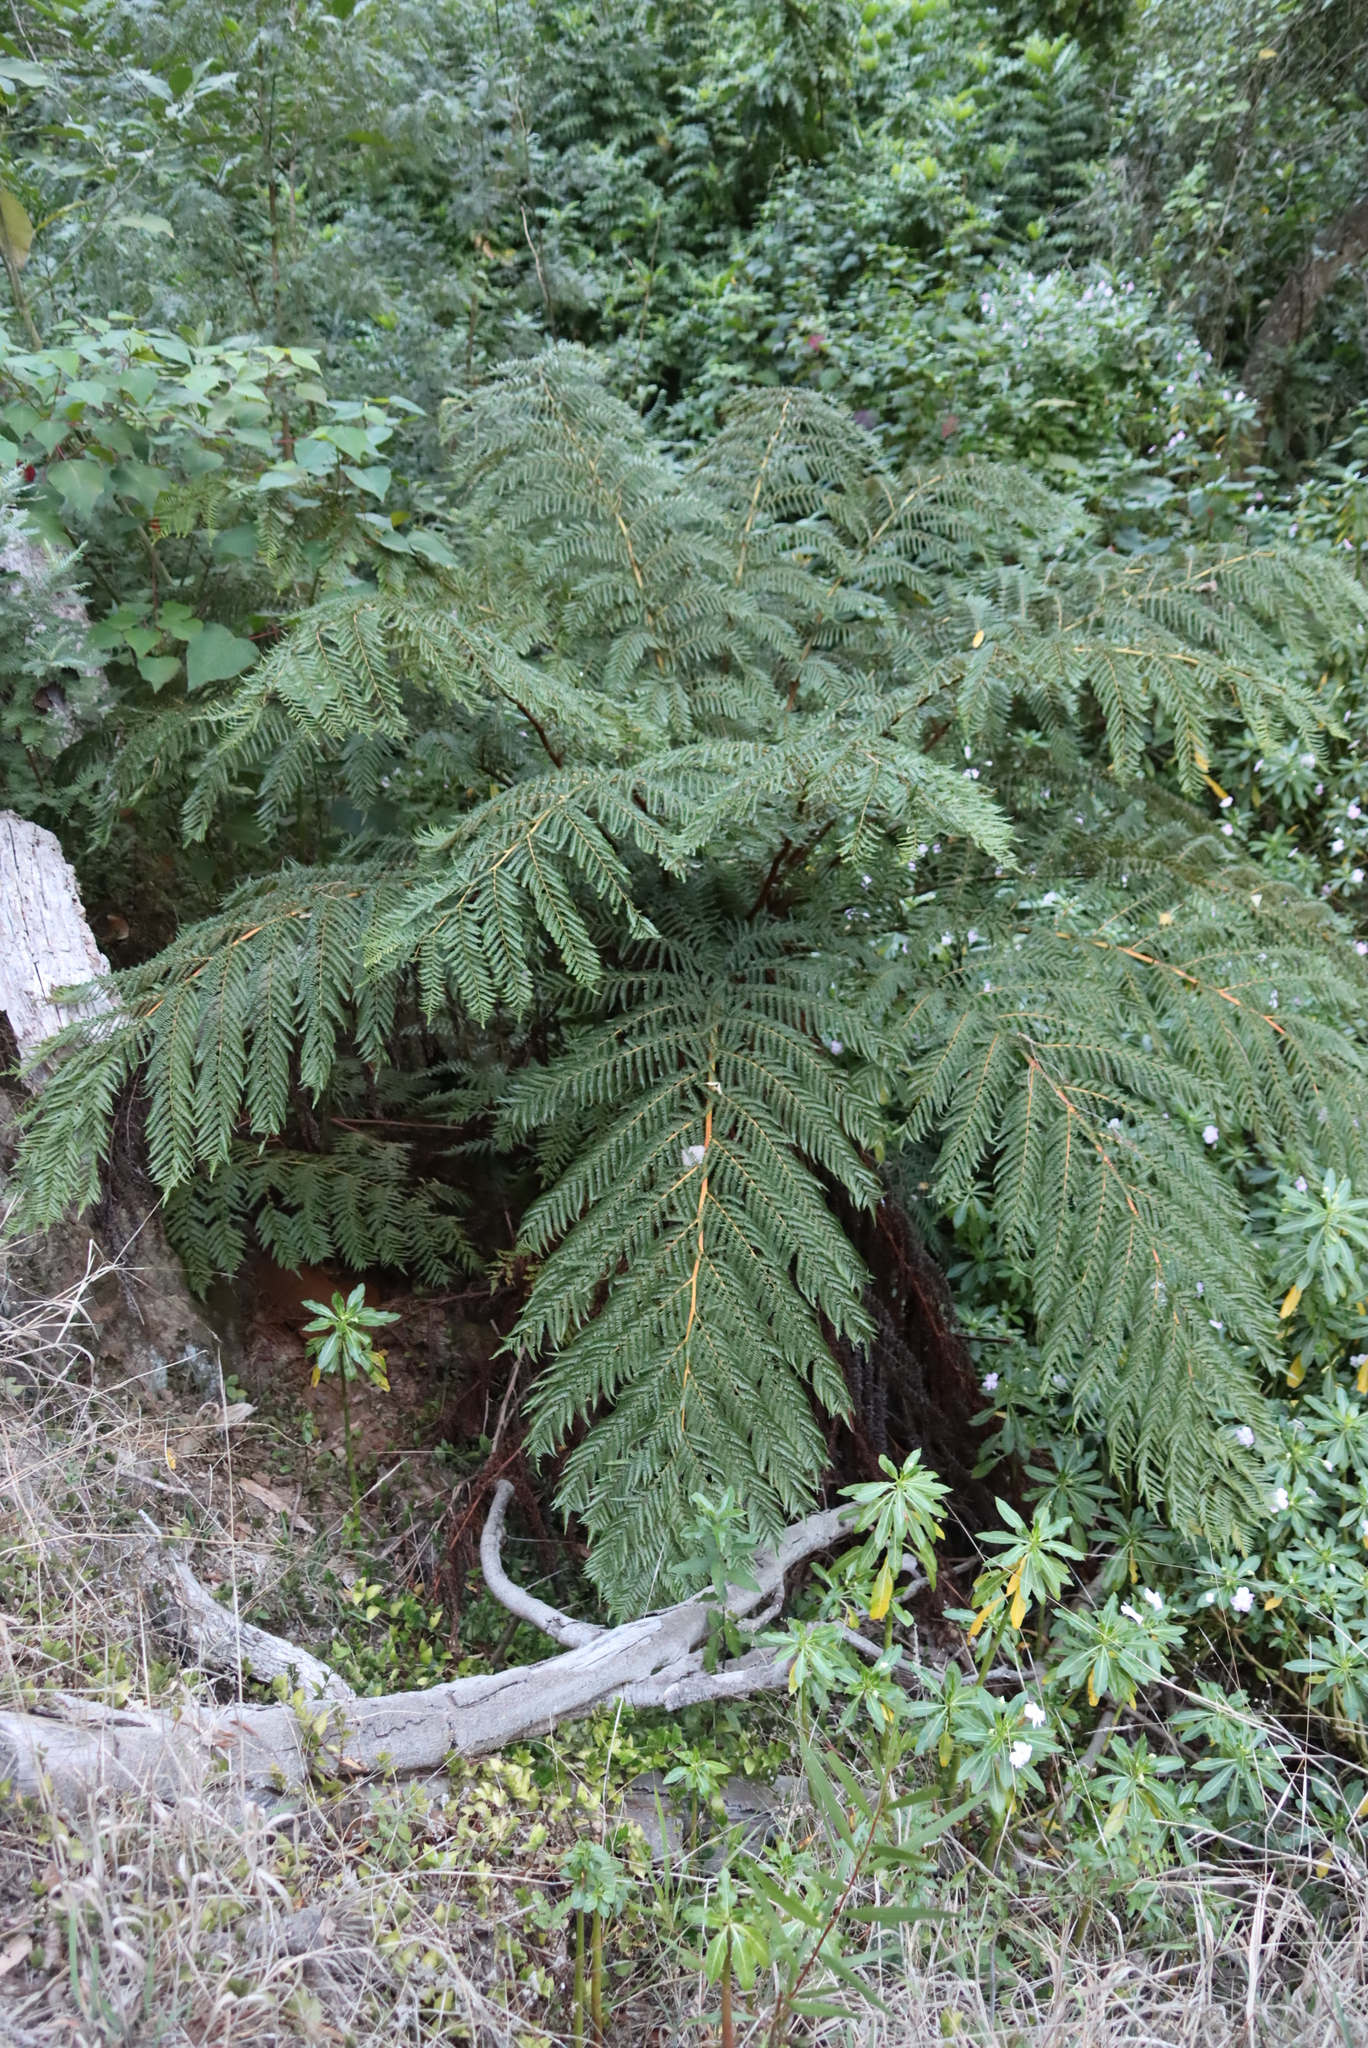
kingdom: Plantae
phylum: Tracheophyta
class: Polypodiopsida
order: Cyatheales
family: Cyatheaceae
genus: Sphaeropteris
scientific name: Sphaeropteris cooperi
